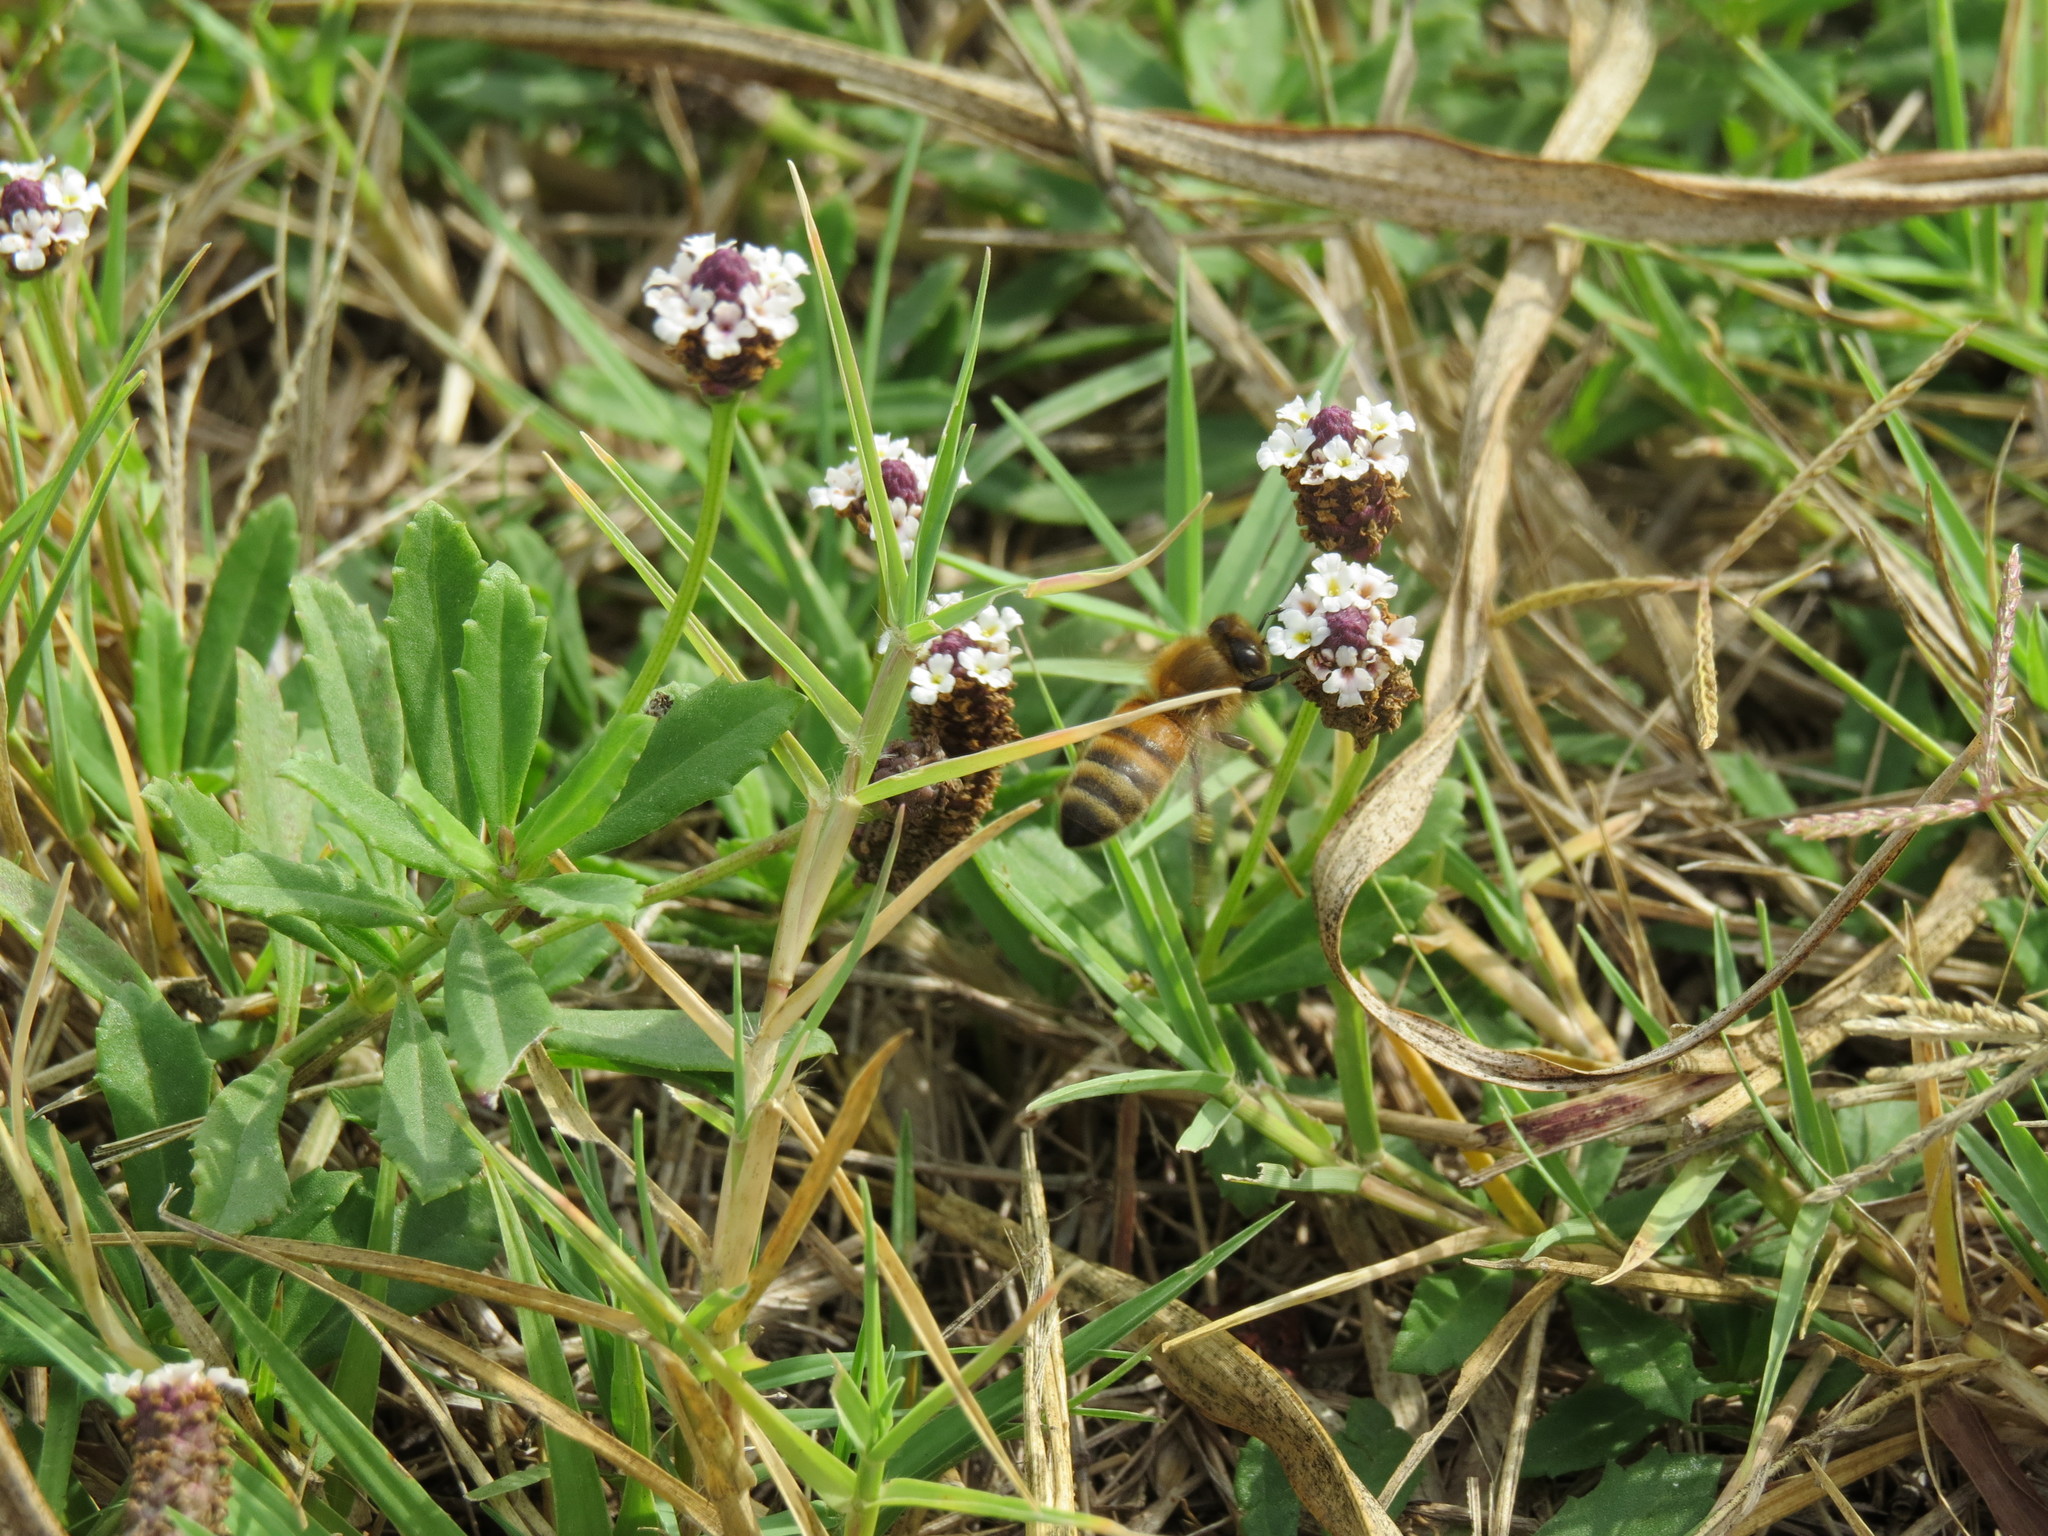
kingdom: Plantae
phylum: Tracheophyta
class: Magnoliopsida
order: Lamiales
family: Verbenaceae
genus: Phyla
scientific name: Phyla nodiflora
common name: Frogfruit
